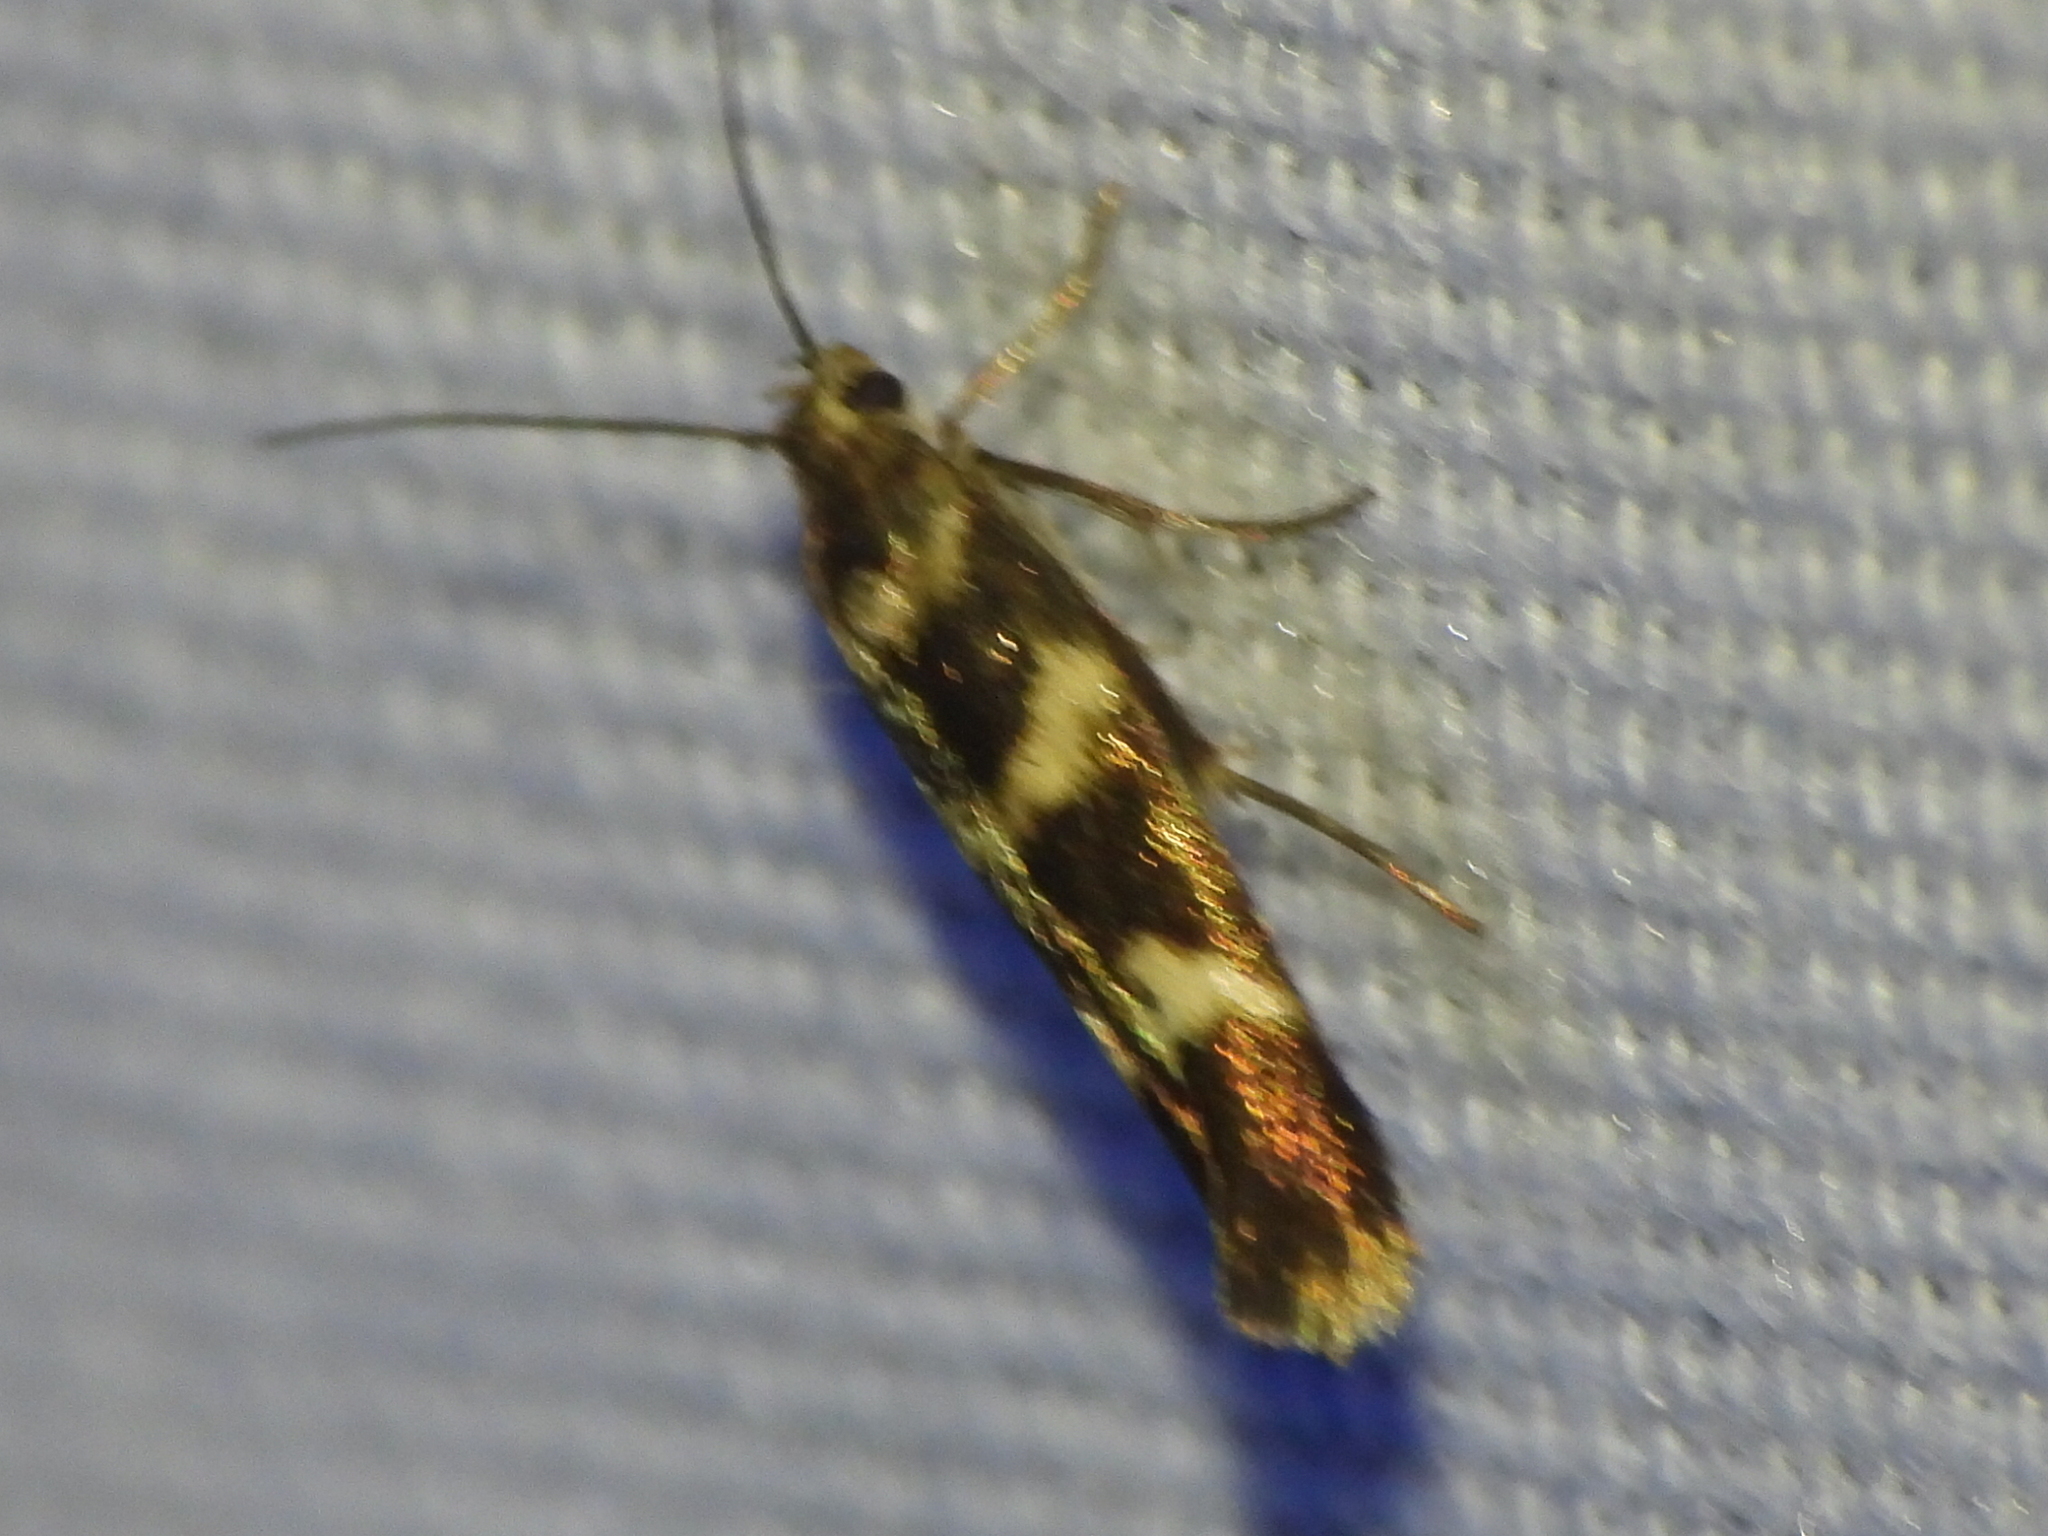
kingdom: Animalia
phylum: Arthropoda
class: Insecta
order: Lepidoptera
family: Scythrididae
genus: Scythris
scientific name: Scythris trivinctella
